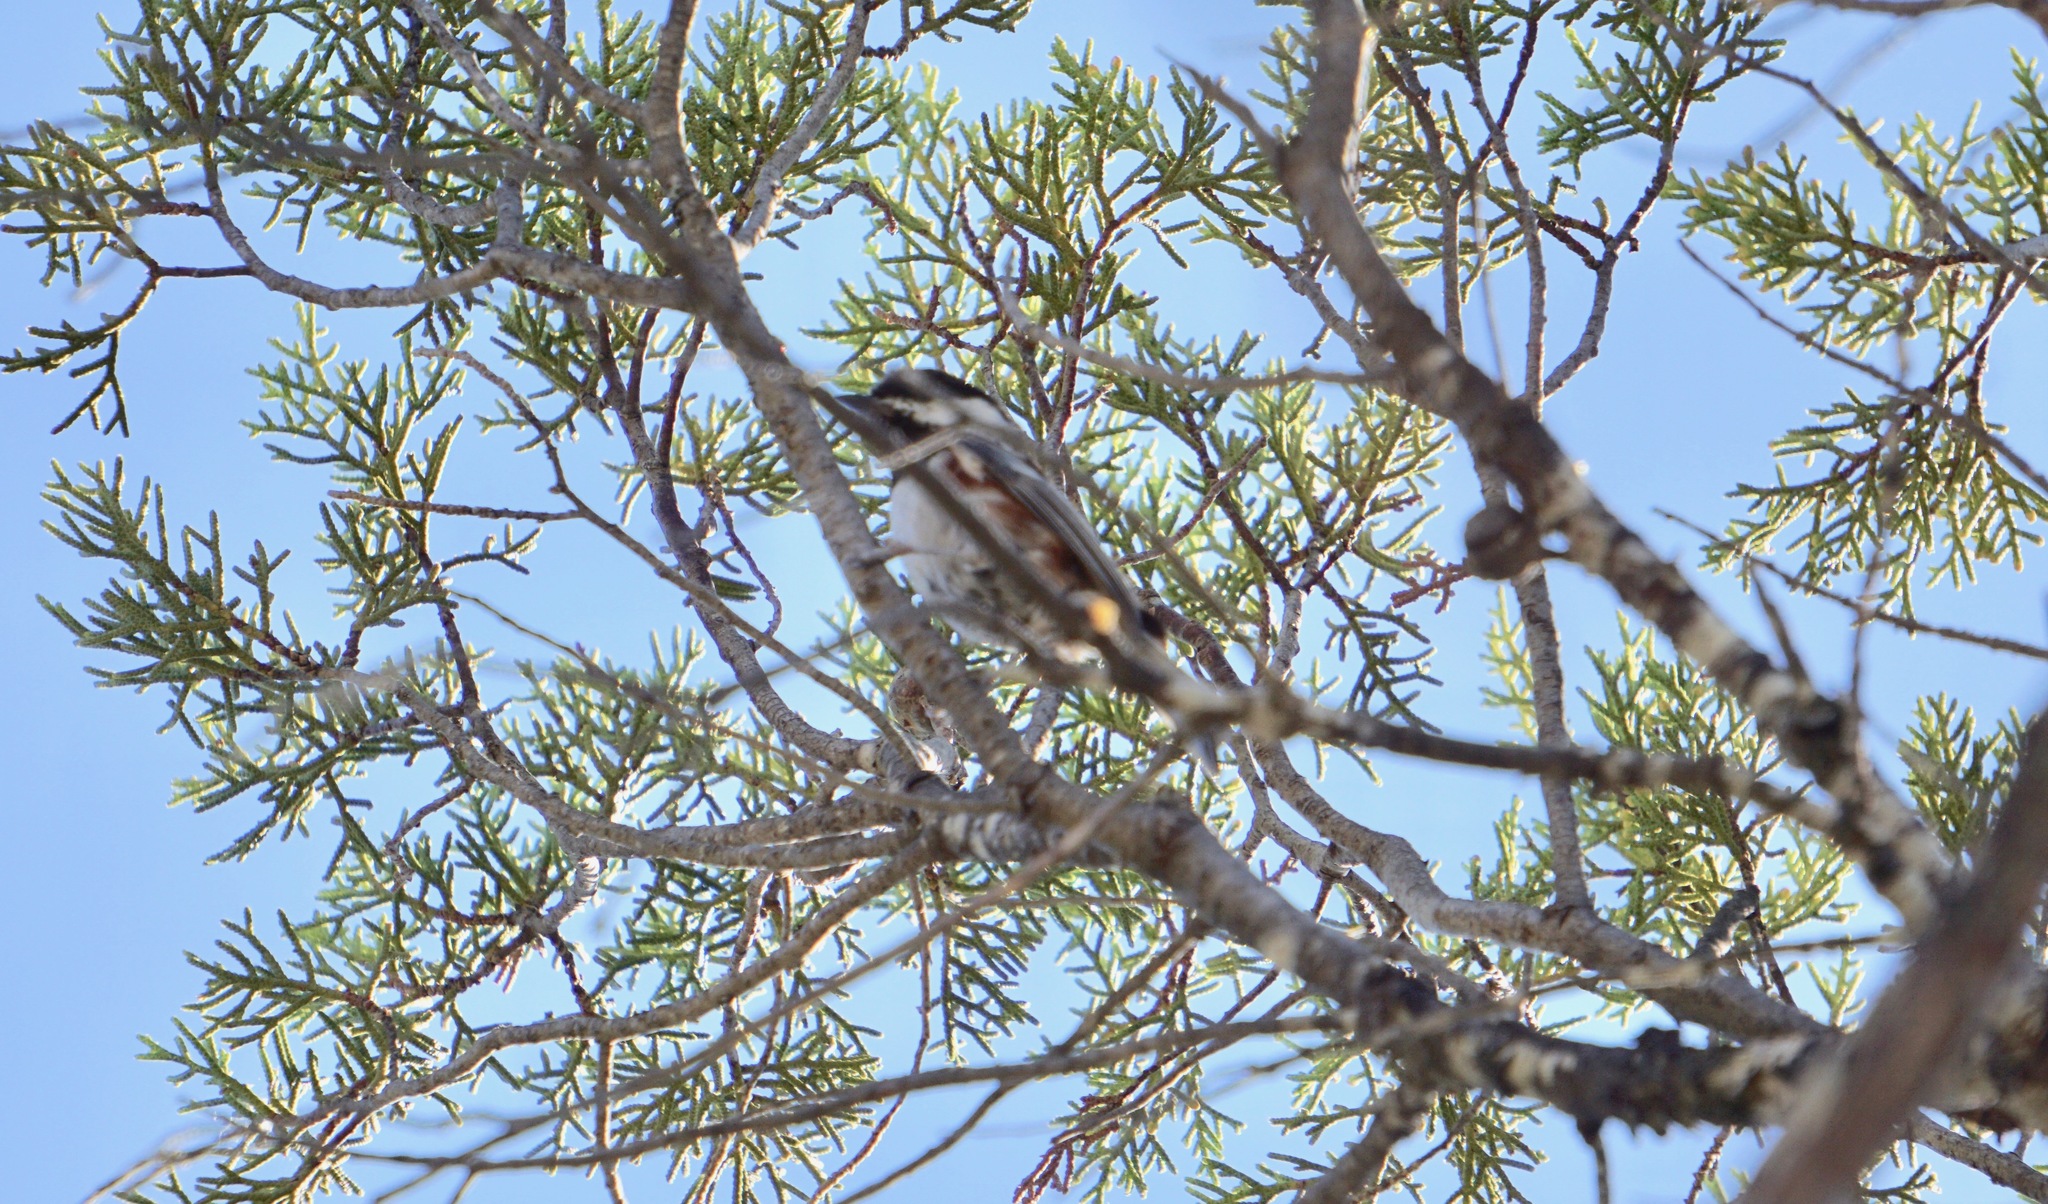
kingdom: Animalia
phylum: Chordata
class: Aves
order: Passeriformes
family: Paridae
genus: Poecile
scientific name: Poecile rufescens
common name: Chestnut-backed chickadee
